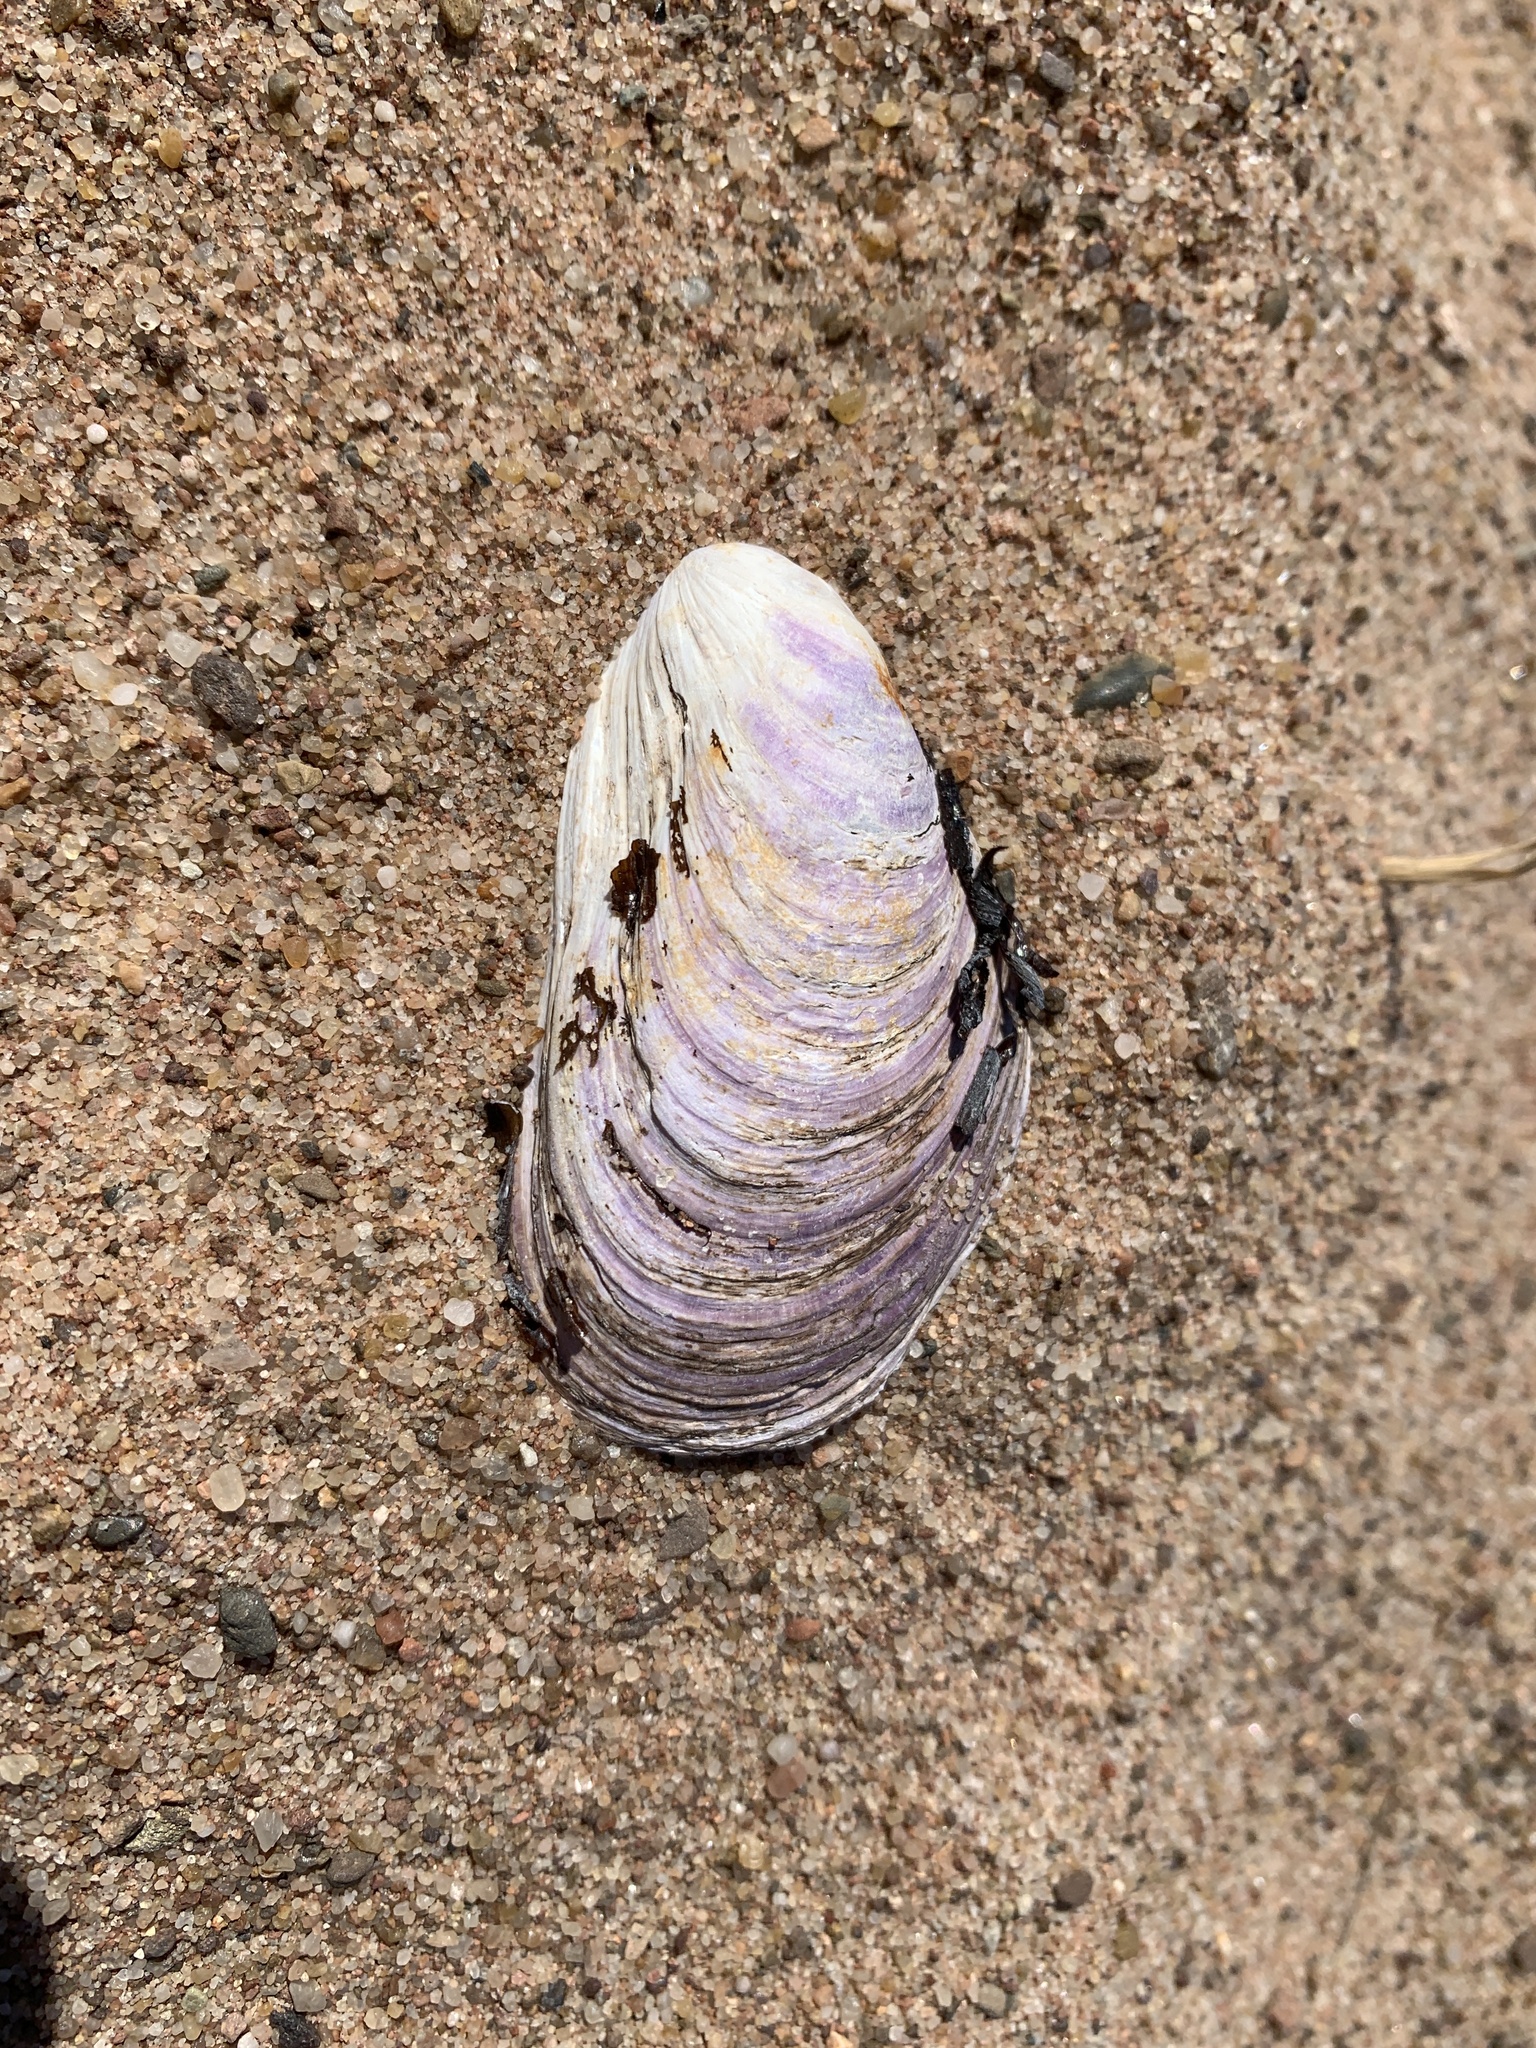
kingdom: Animalia
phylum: Mollusca
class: Bivalvia
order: Mytilida
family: Mytilidae
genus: Modiolus
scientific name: Modiolus modiolus
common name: Horse-mussel
